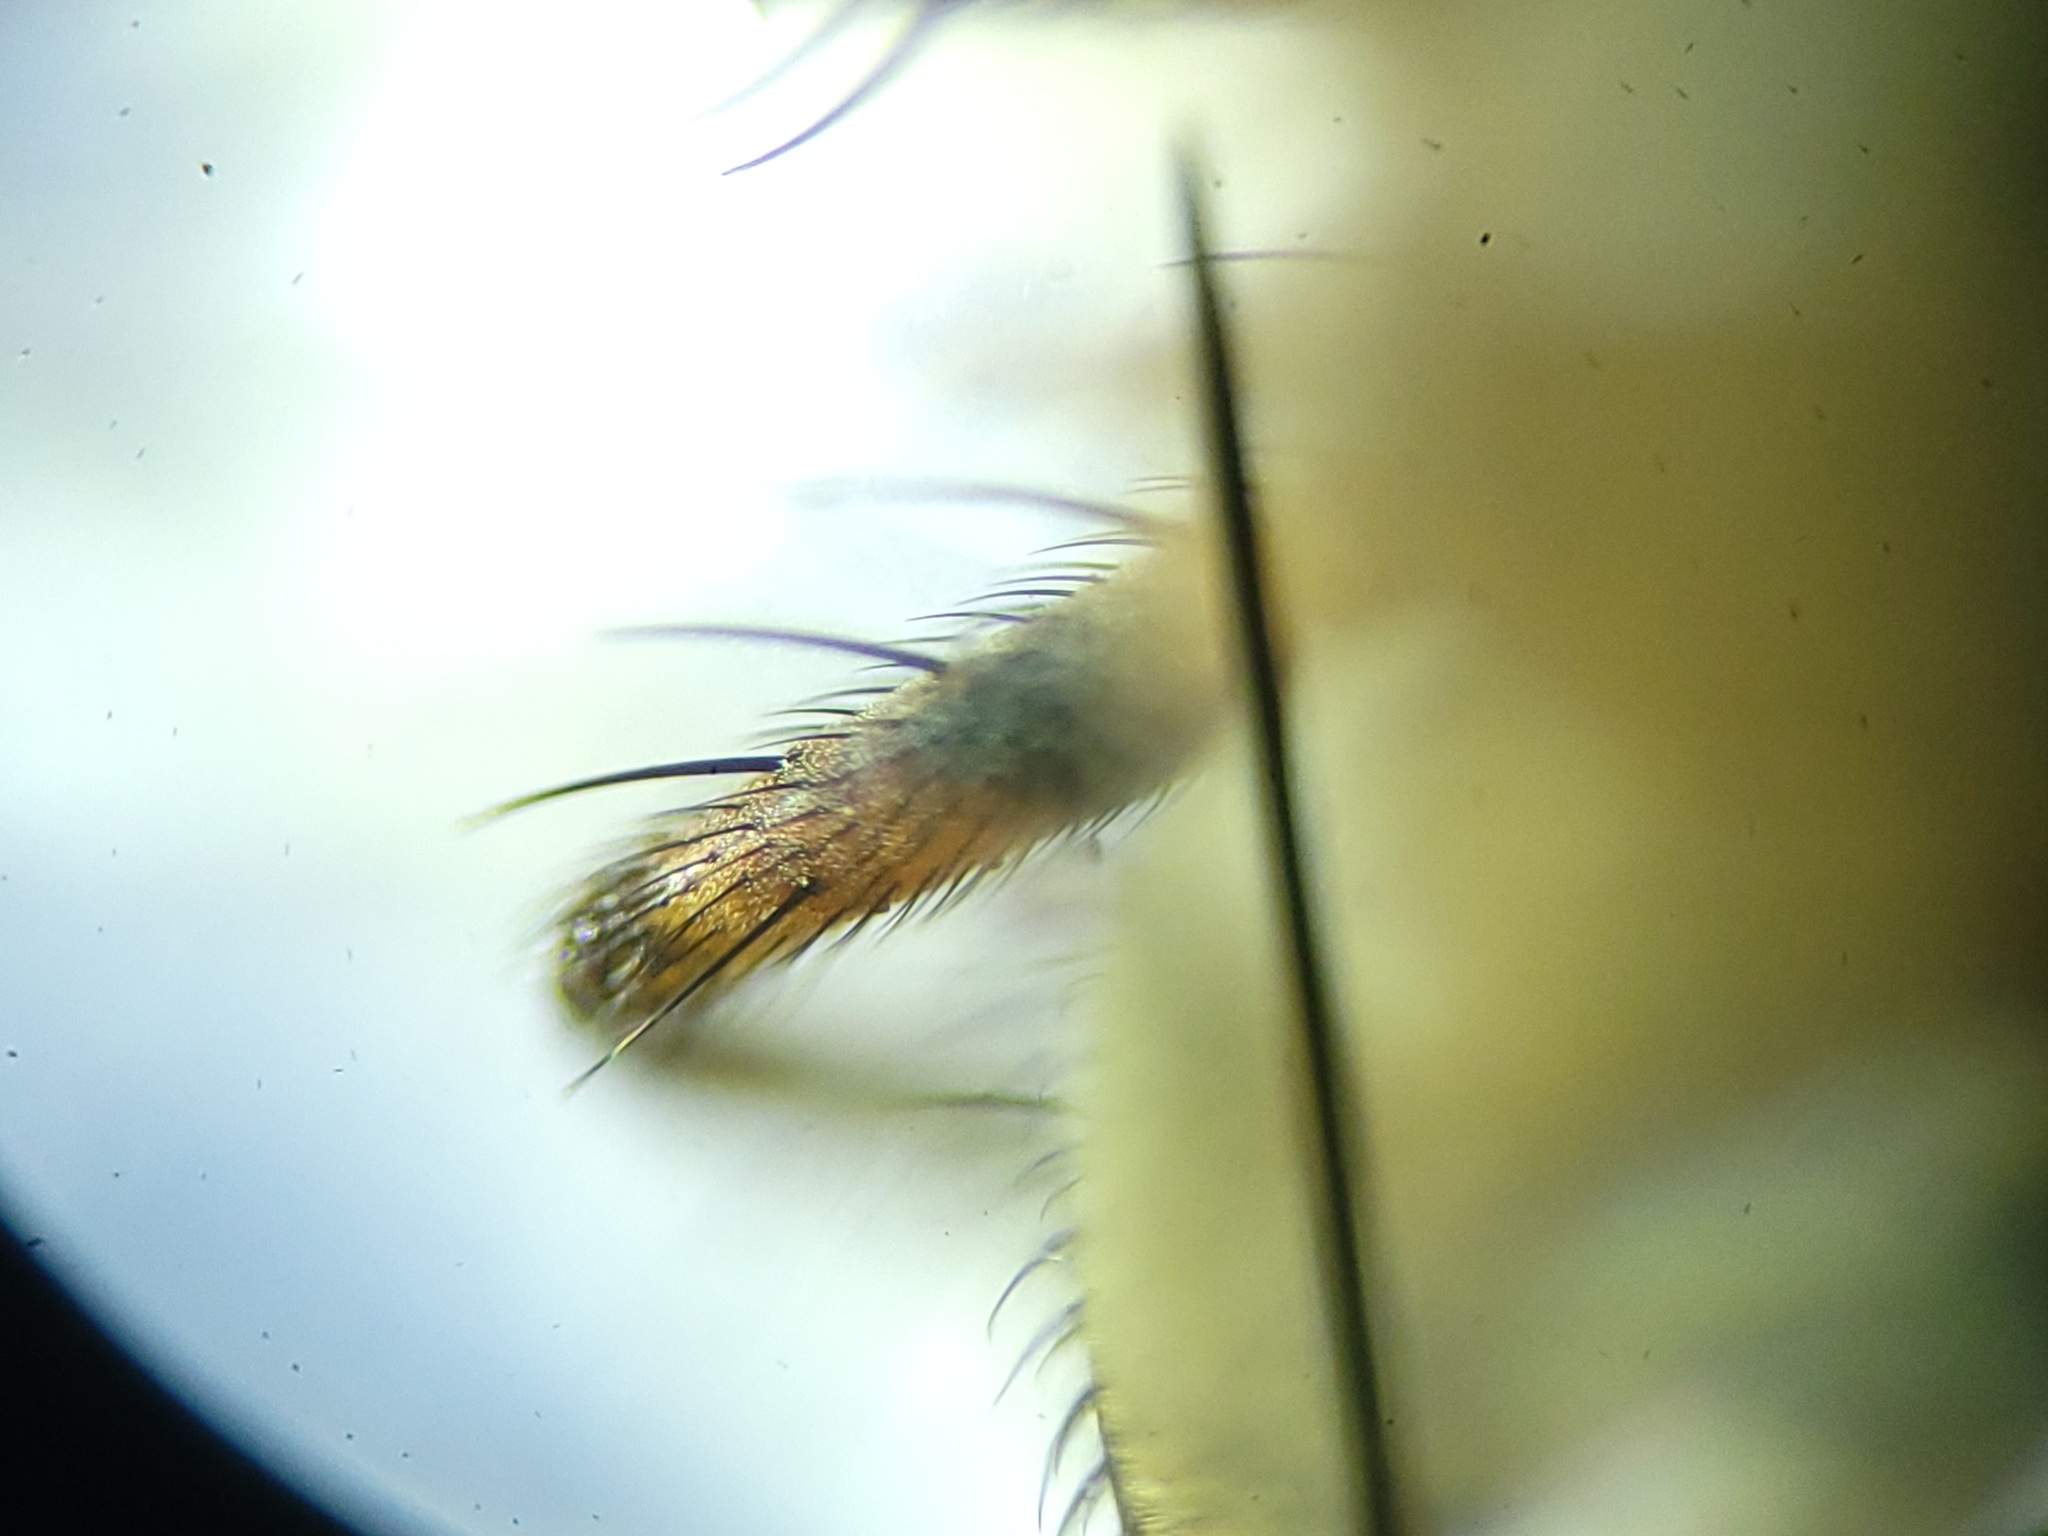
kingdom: Animalia
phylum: Arthropoda
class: Insecta
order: Diptera
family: Muscidae
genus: Coenosia
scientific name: Coenosia tigrina
